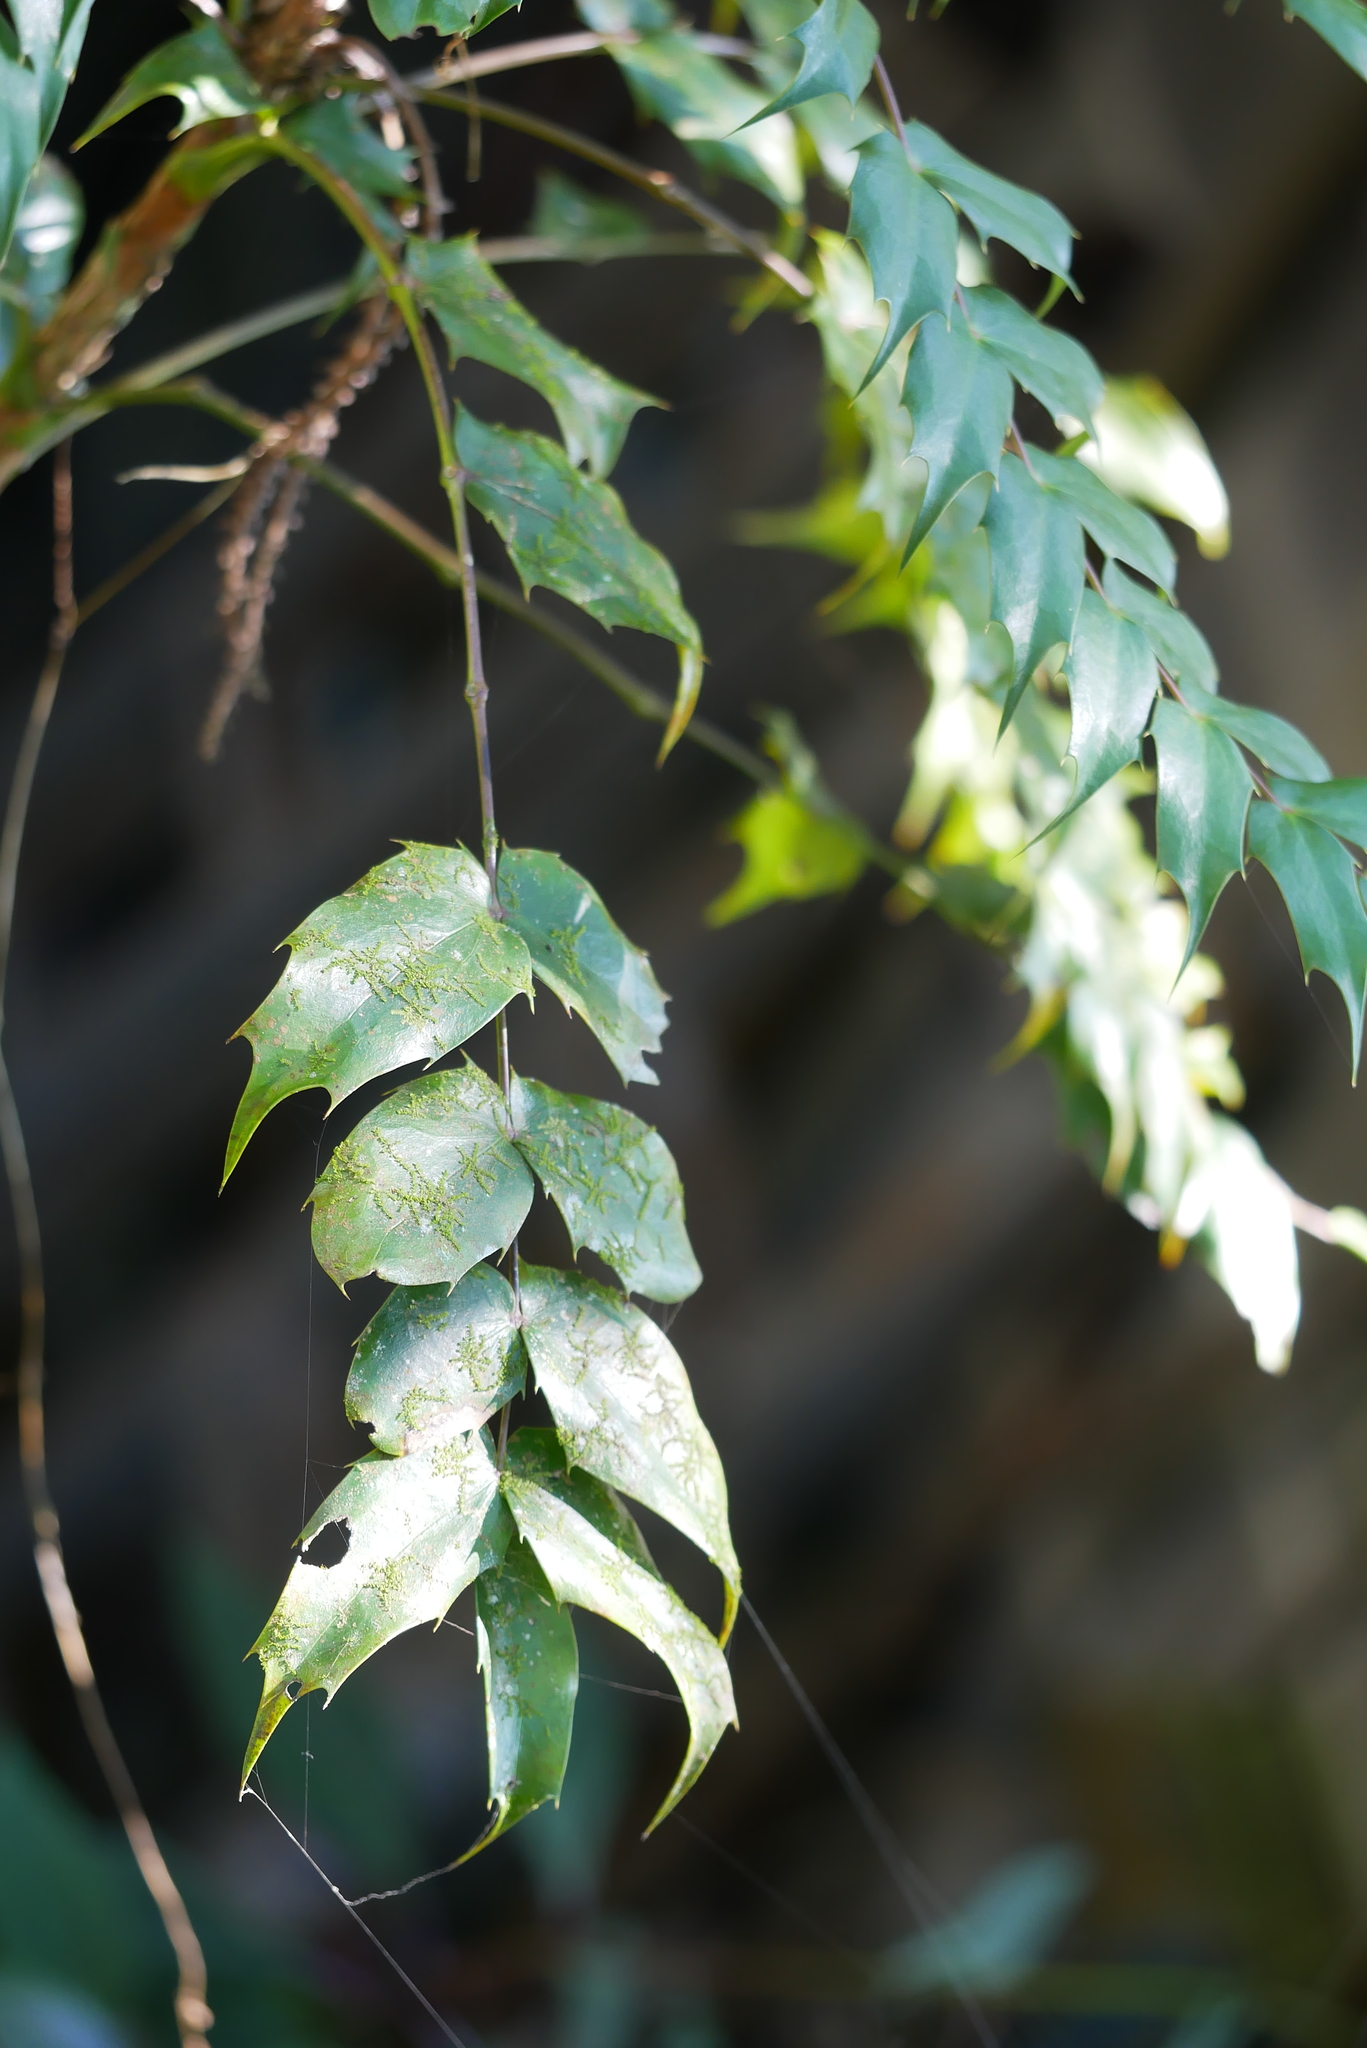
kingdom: Plantae
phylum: Tracheophyta
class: Magnoliopsida
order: Ranunculales
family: Berberidaceae
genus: Mahonia
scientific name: Mahonia oiwakensis
